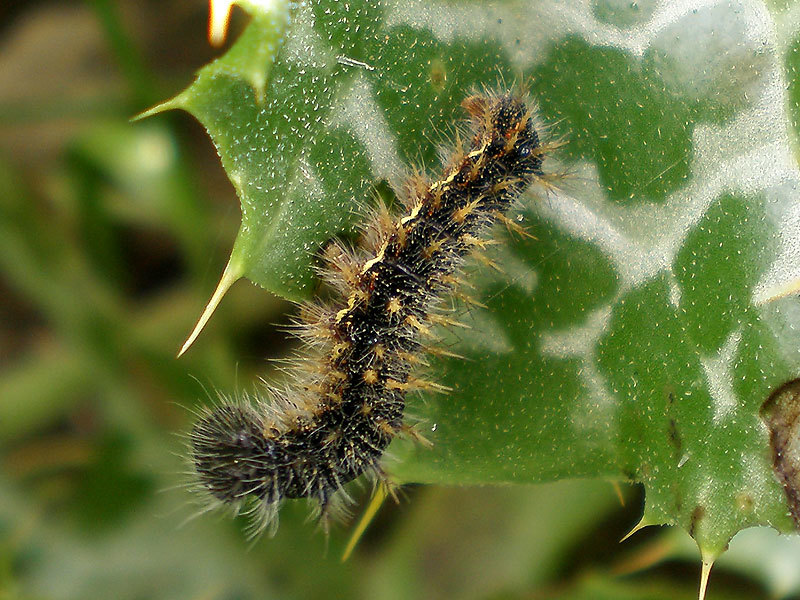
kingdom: Animalia
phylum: Arthropoda
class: Insecta
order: Lepidoptera
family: Nymphalidae
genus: Vanessa
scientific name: Vanessa cardui
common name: Painted lady
